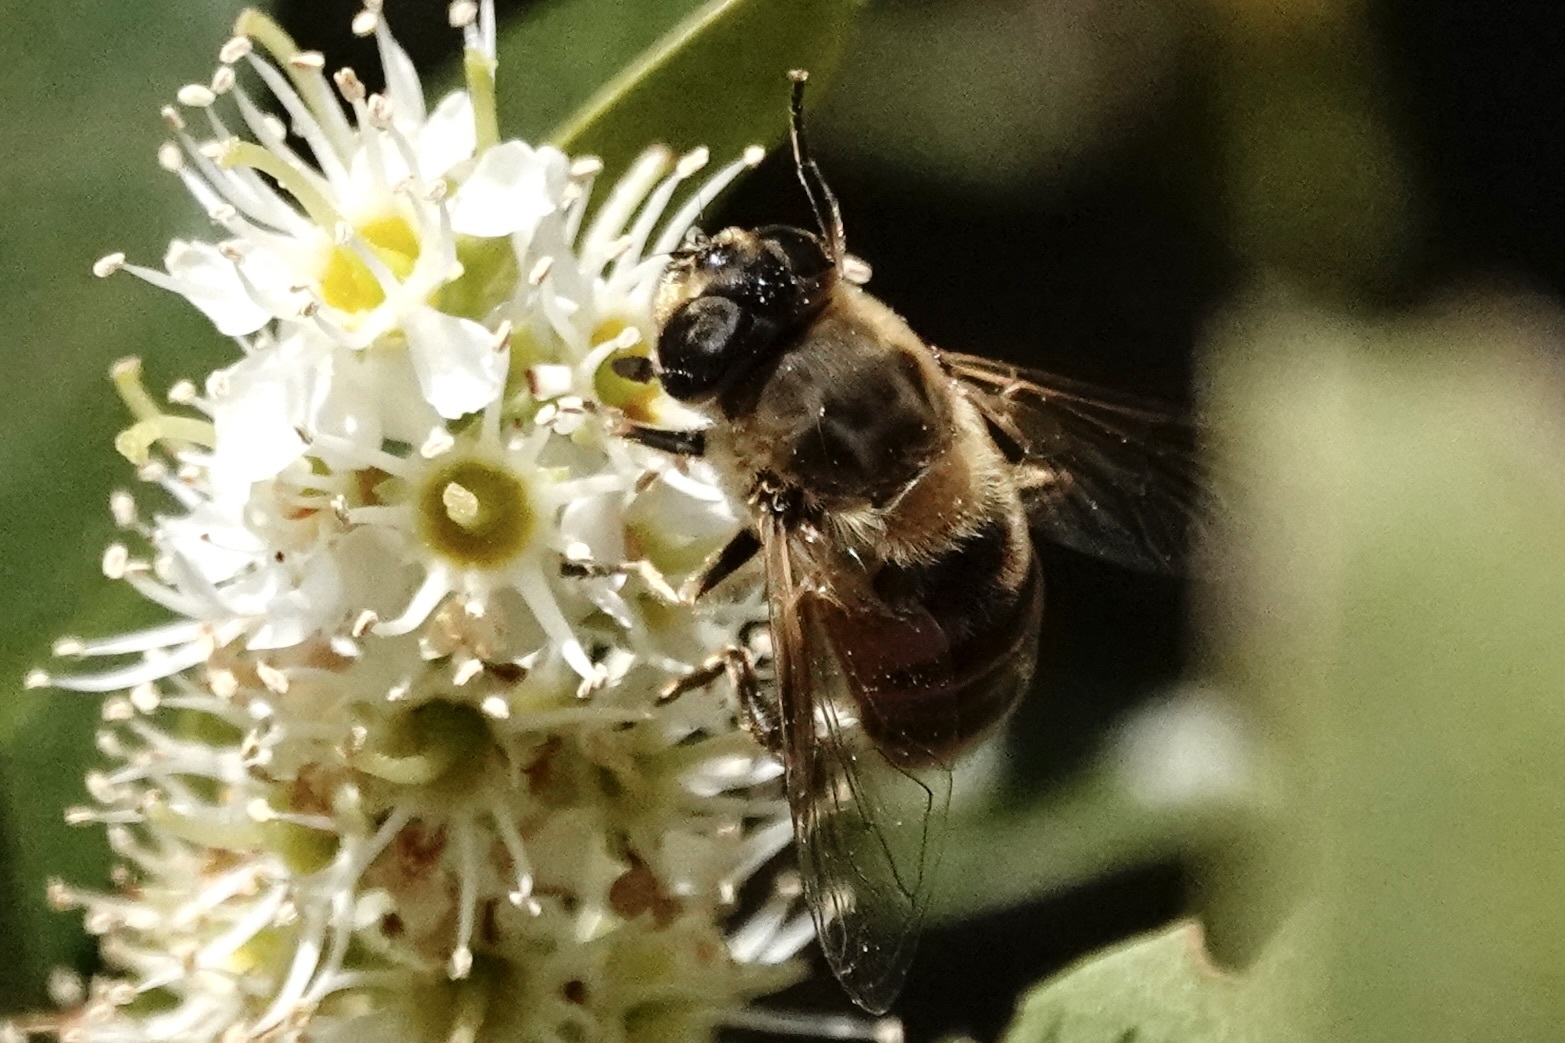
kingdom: Animalia
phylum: Arthropoda
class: Insecta
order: Diptera
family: Syrphidae
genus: Eristalis
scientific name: Eristalis tenax
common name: Drone fly
